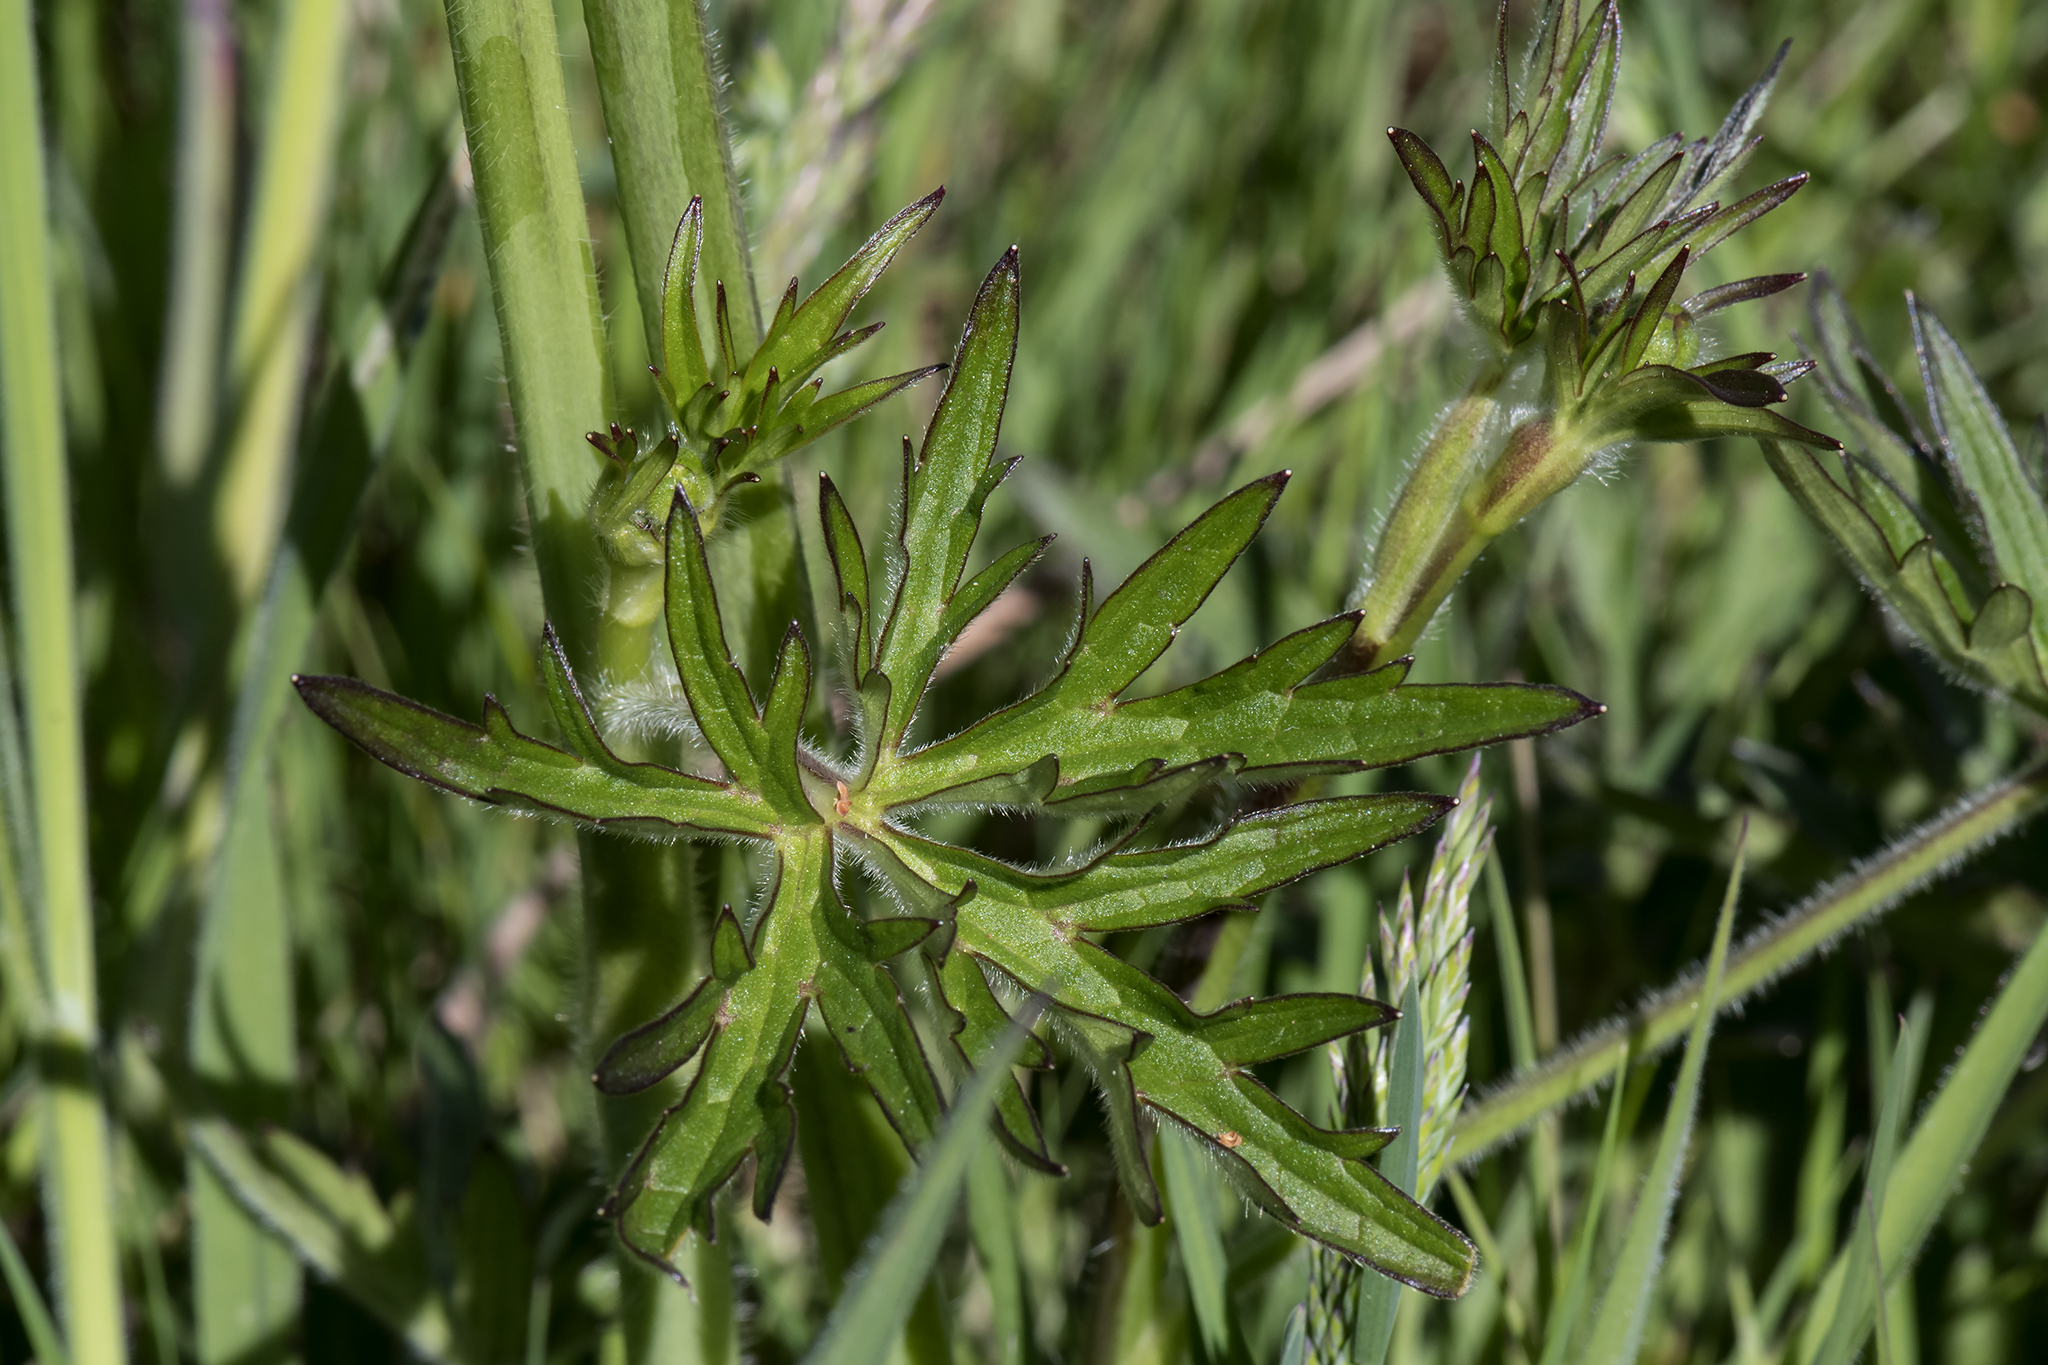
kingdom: Plantae
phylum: Tracheophyta
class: Magnoliopsida
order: Ranunculales
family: Ranunculaceae
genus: Ranunculus
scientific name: Ranunculus acris
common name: Meadow buttercup
